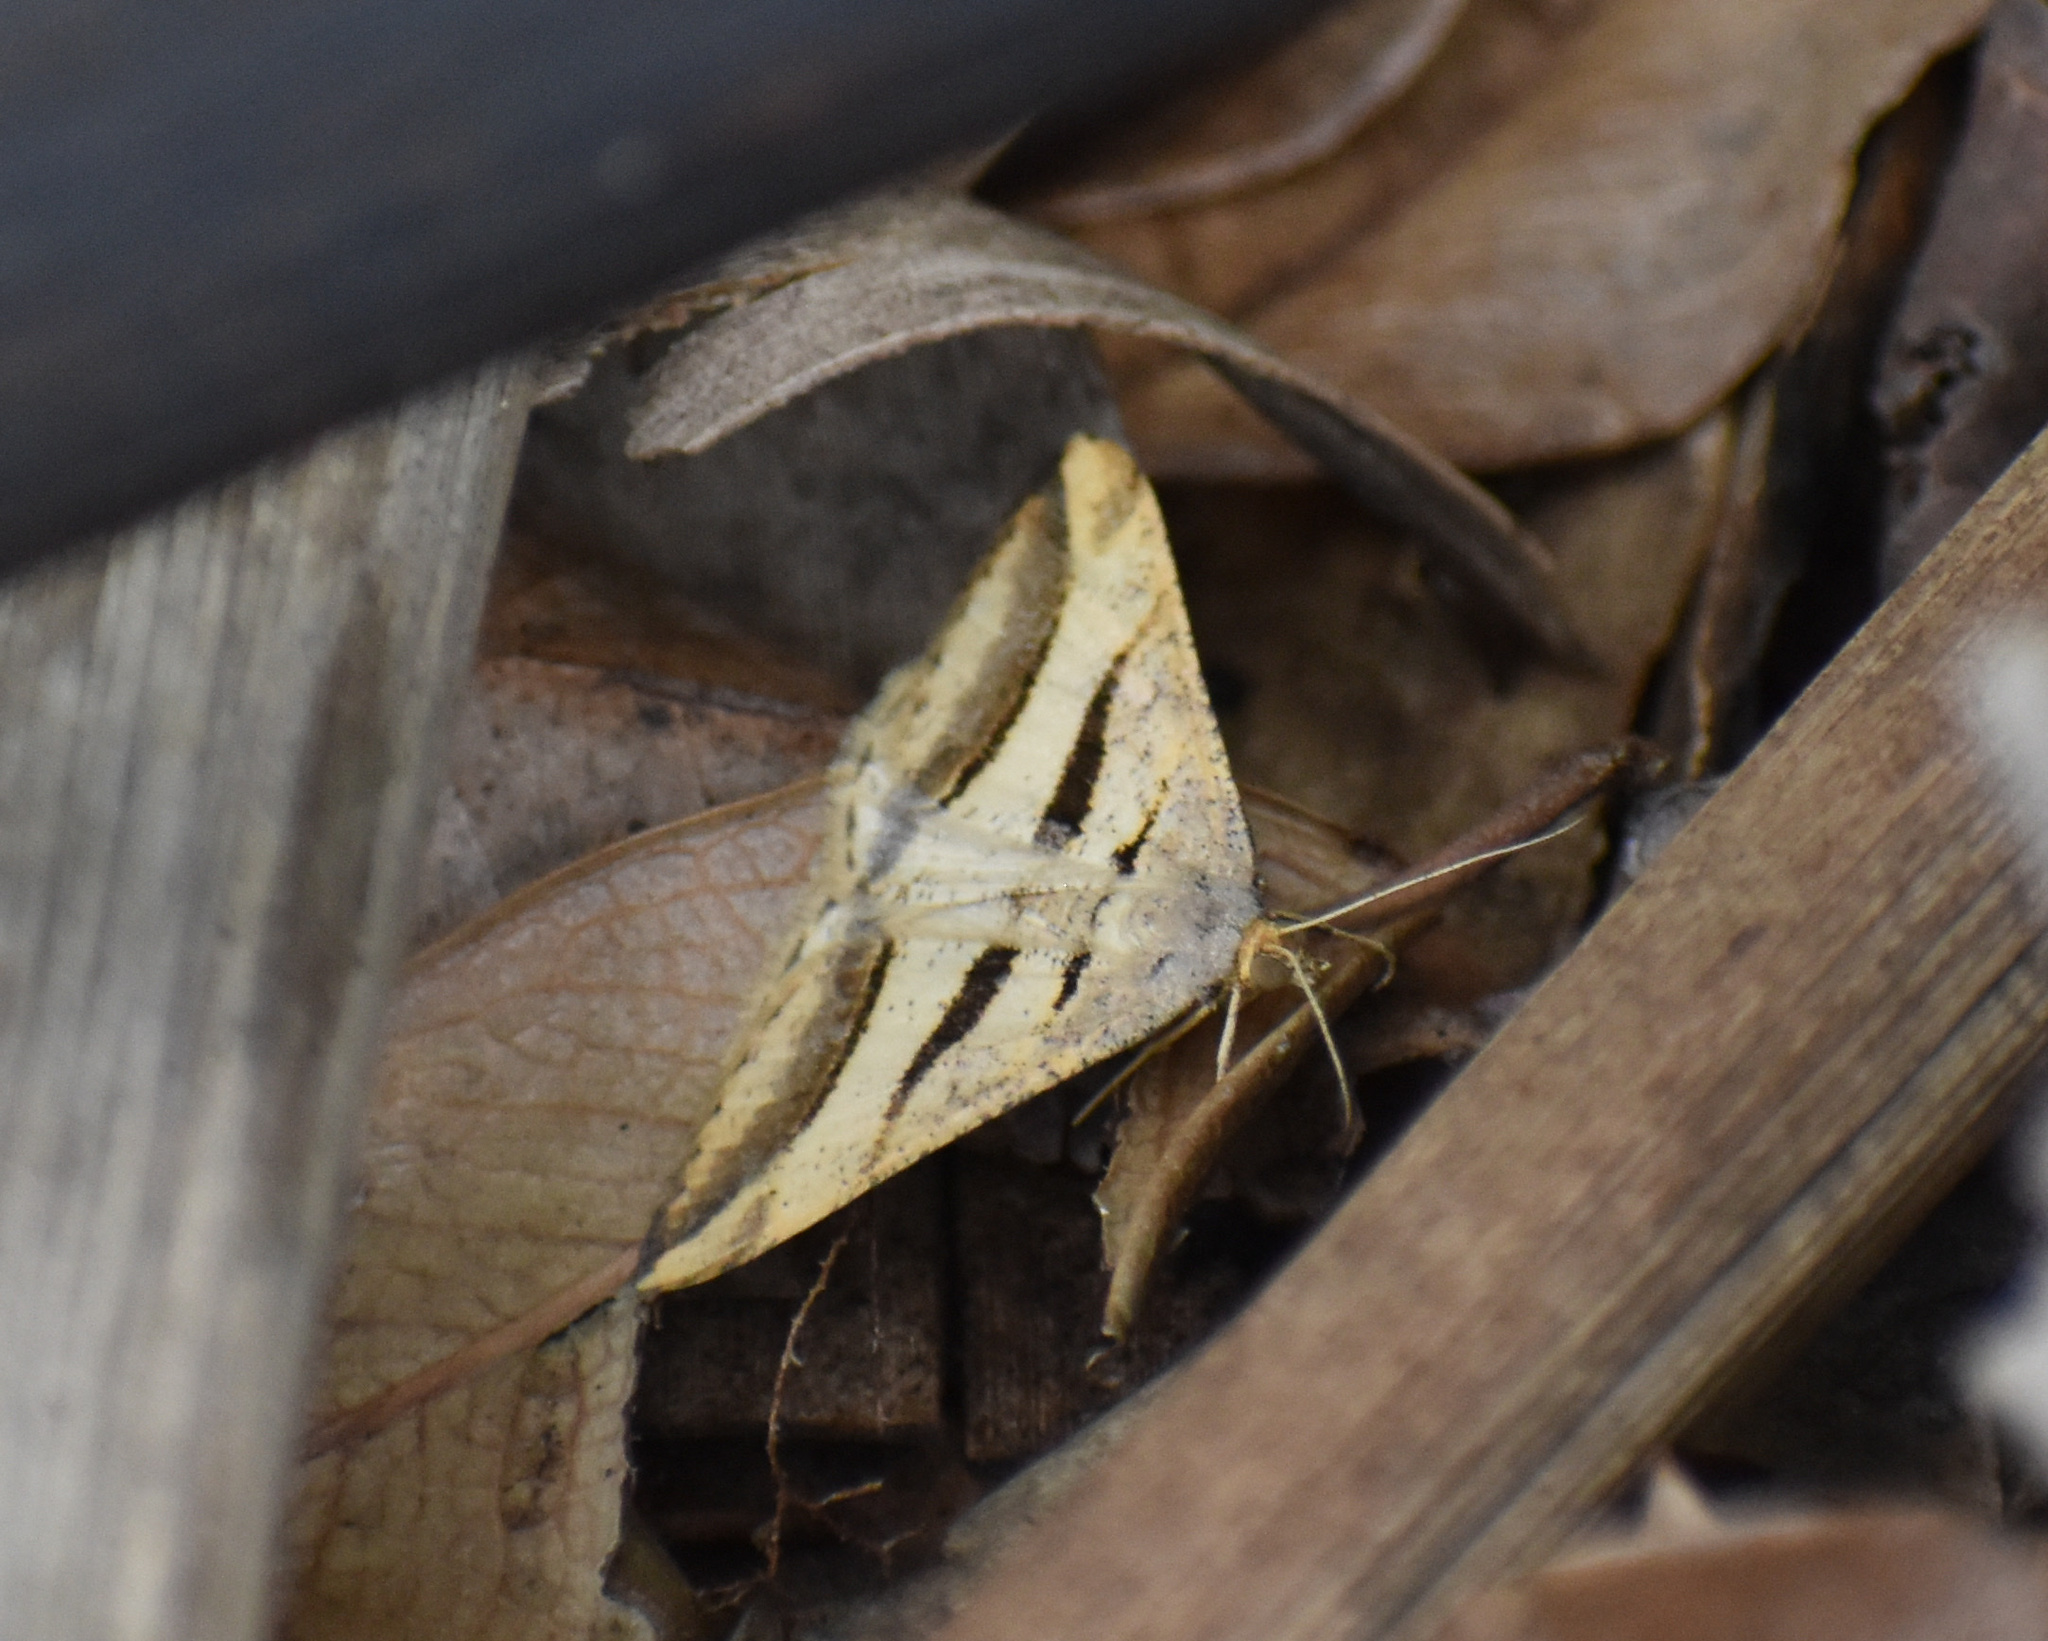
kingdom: Animalia
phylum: Arthropoda
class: Insecta
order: Lepidoptera
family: Geometridae
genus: Chiasmia
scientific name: Chiasmia subcurvaria
